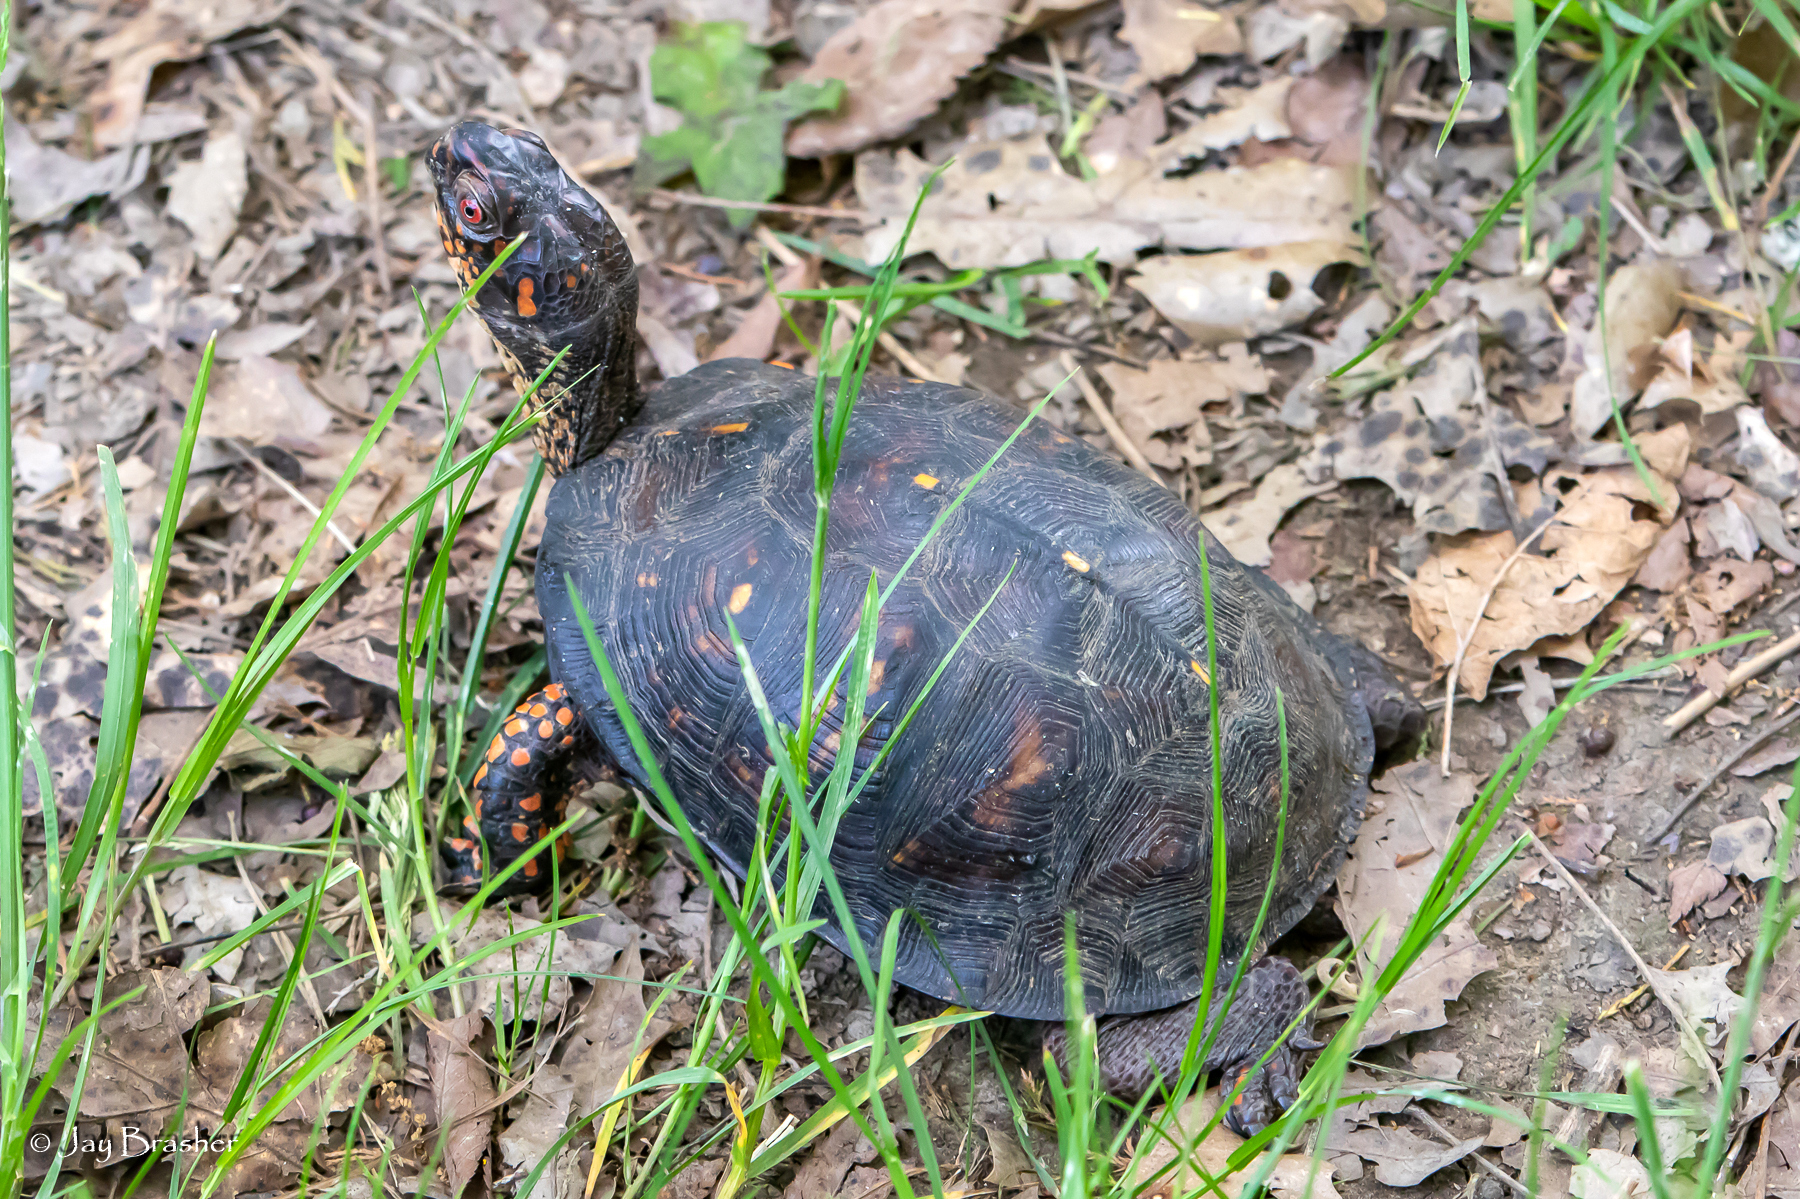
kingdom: Animalia
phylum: Chordata
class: Testudines
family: Emydidae
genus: Terrapene
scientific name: Terrapene carolina
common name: Common box turtle
